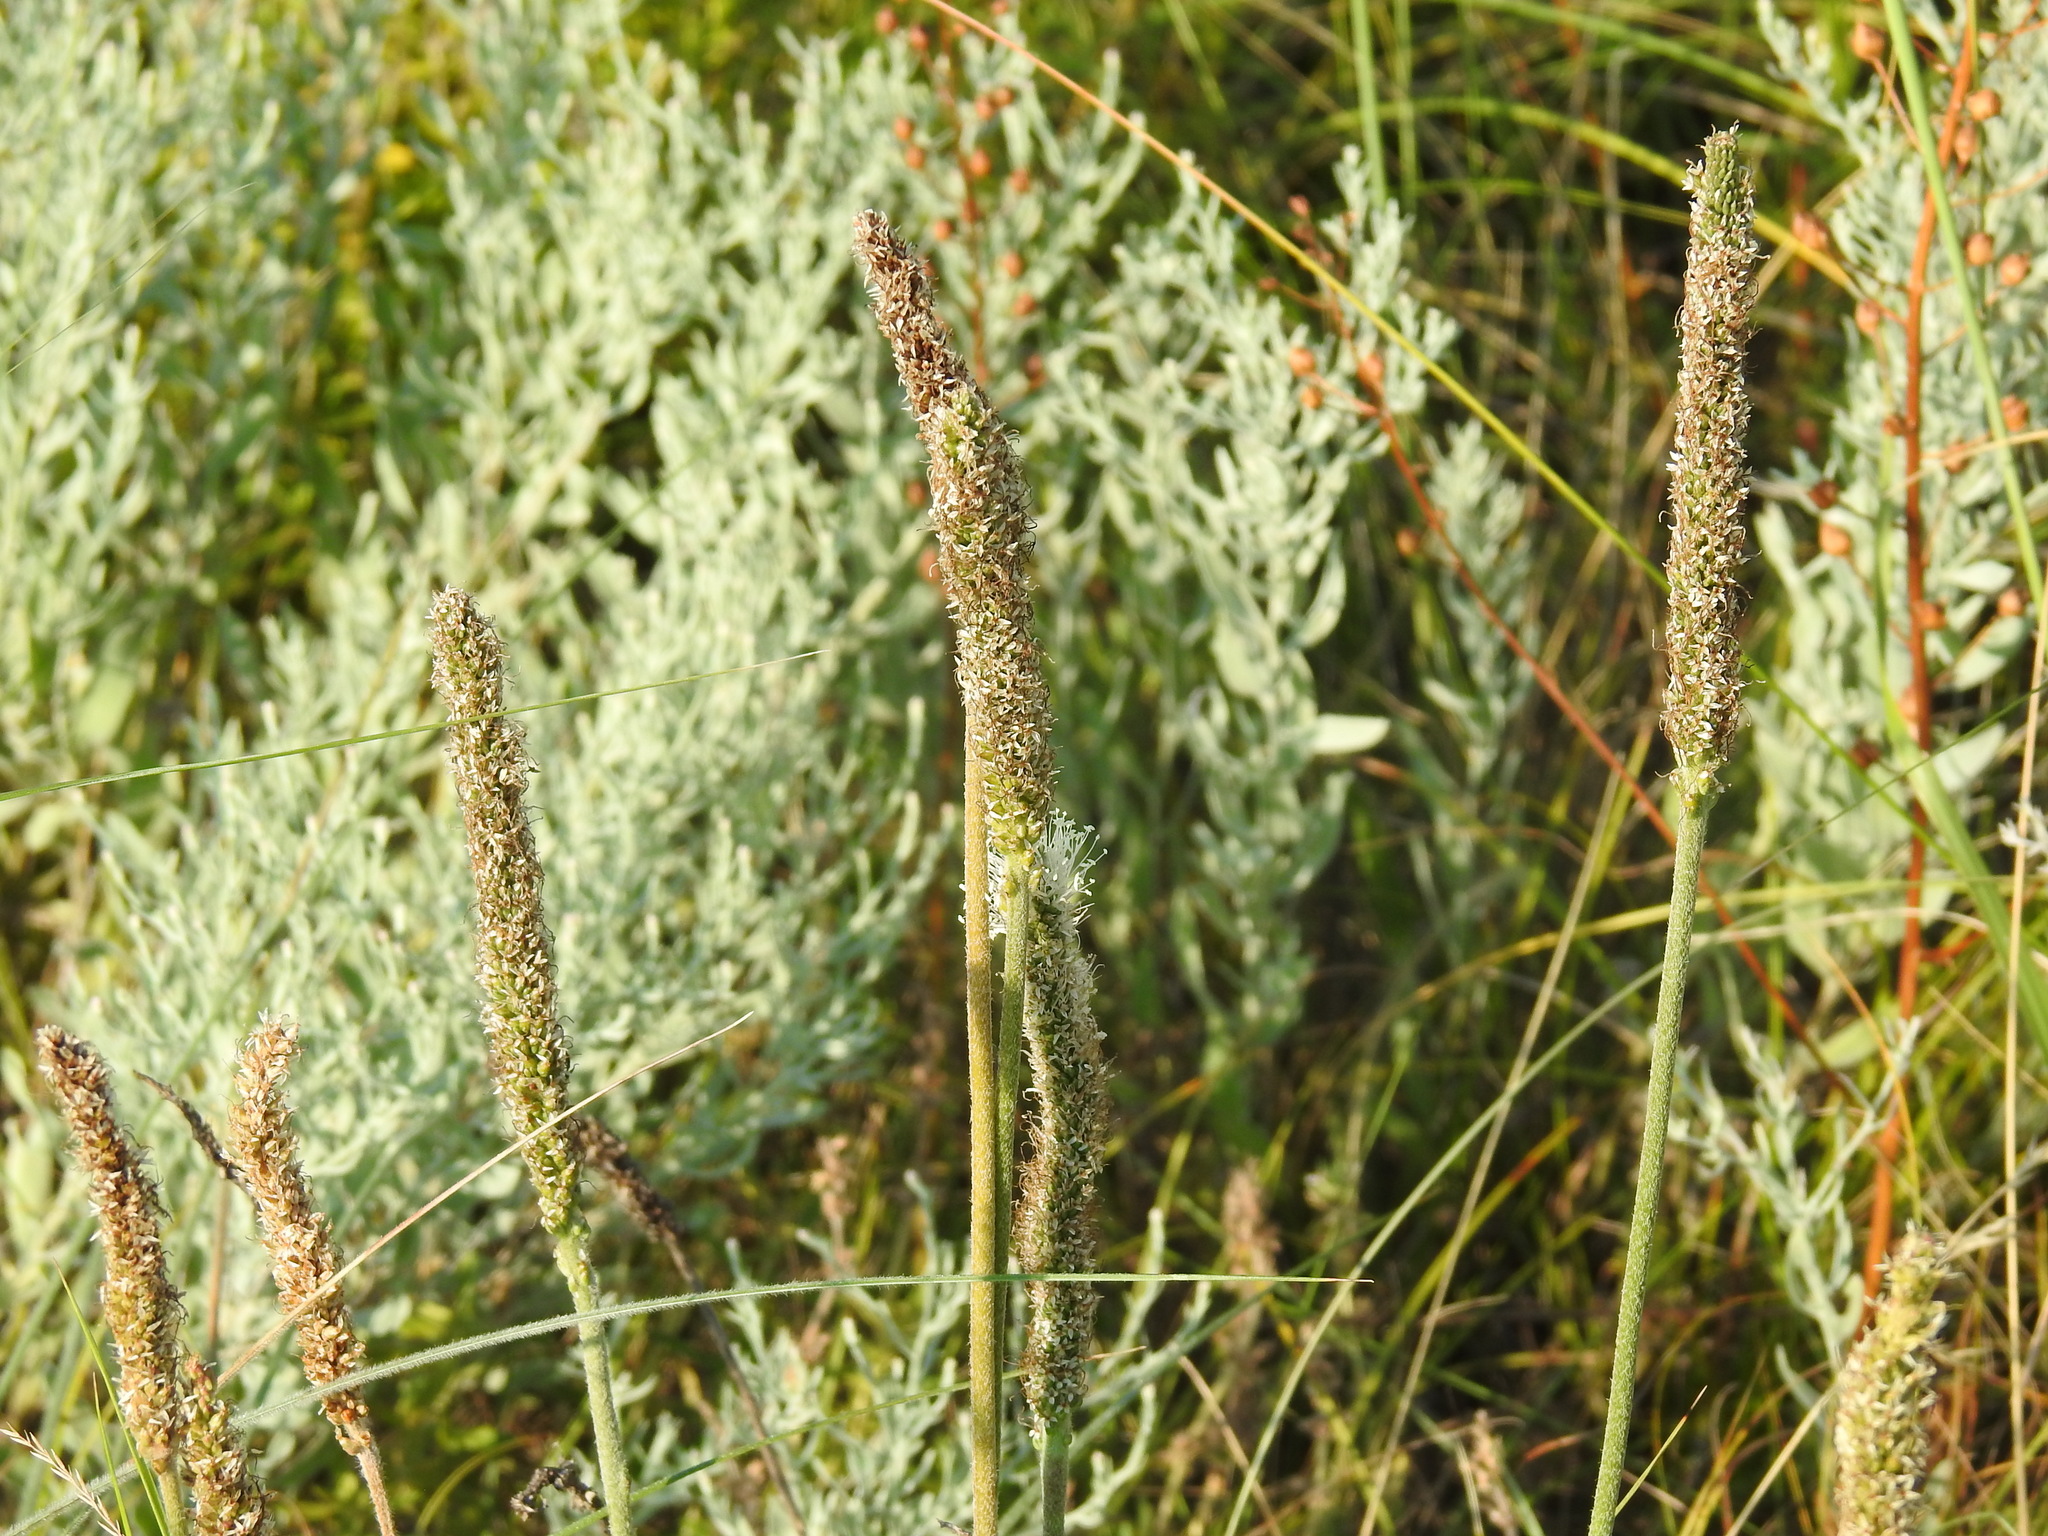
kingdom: Plantae
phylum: Tracheophyta
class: Magnoliopsida
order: Lamiales
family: Plantaginaceae
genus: Plantago
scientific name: Plantago maxima
